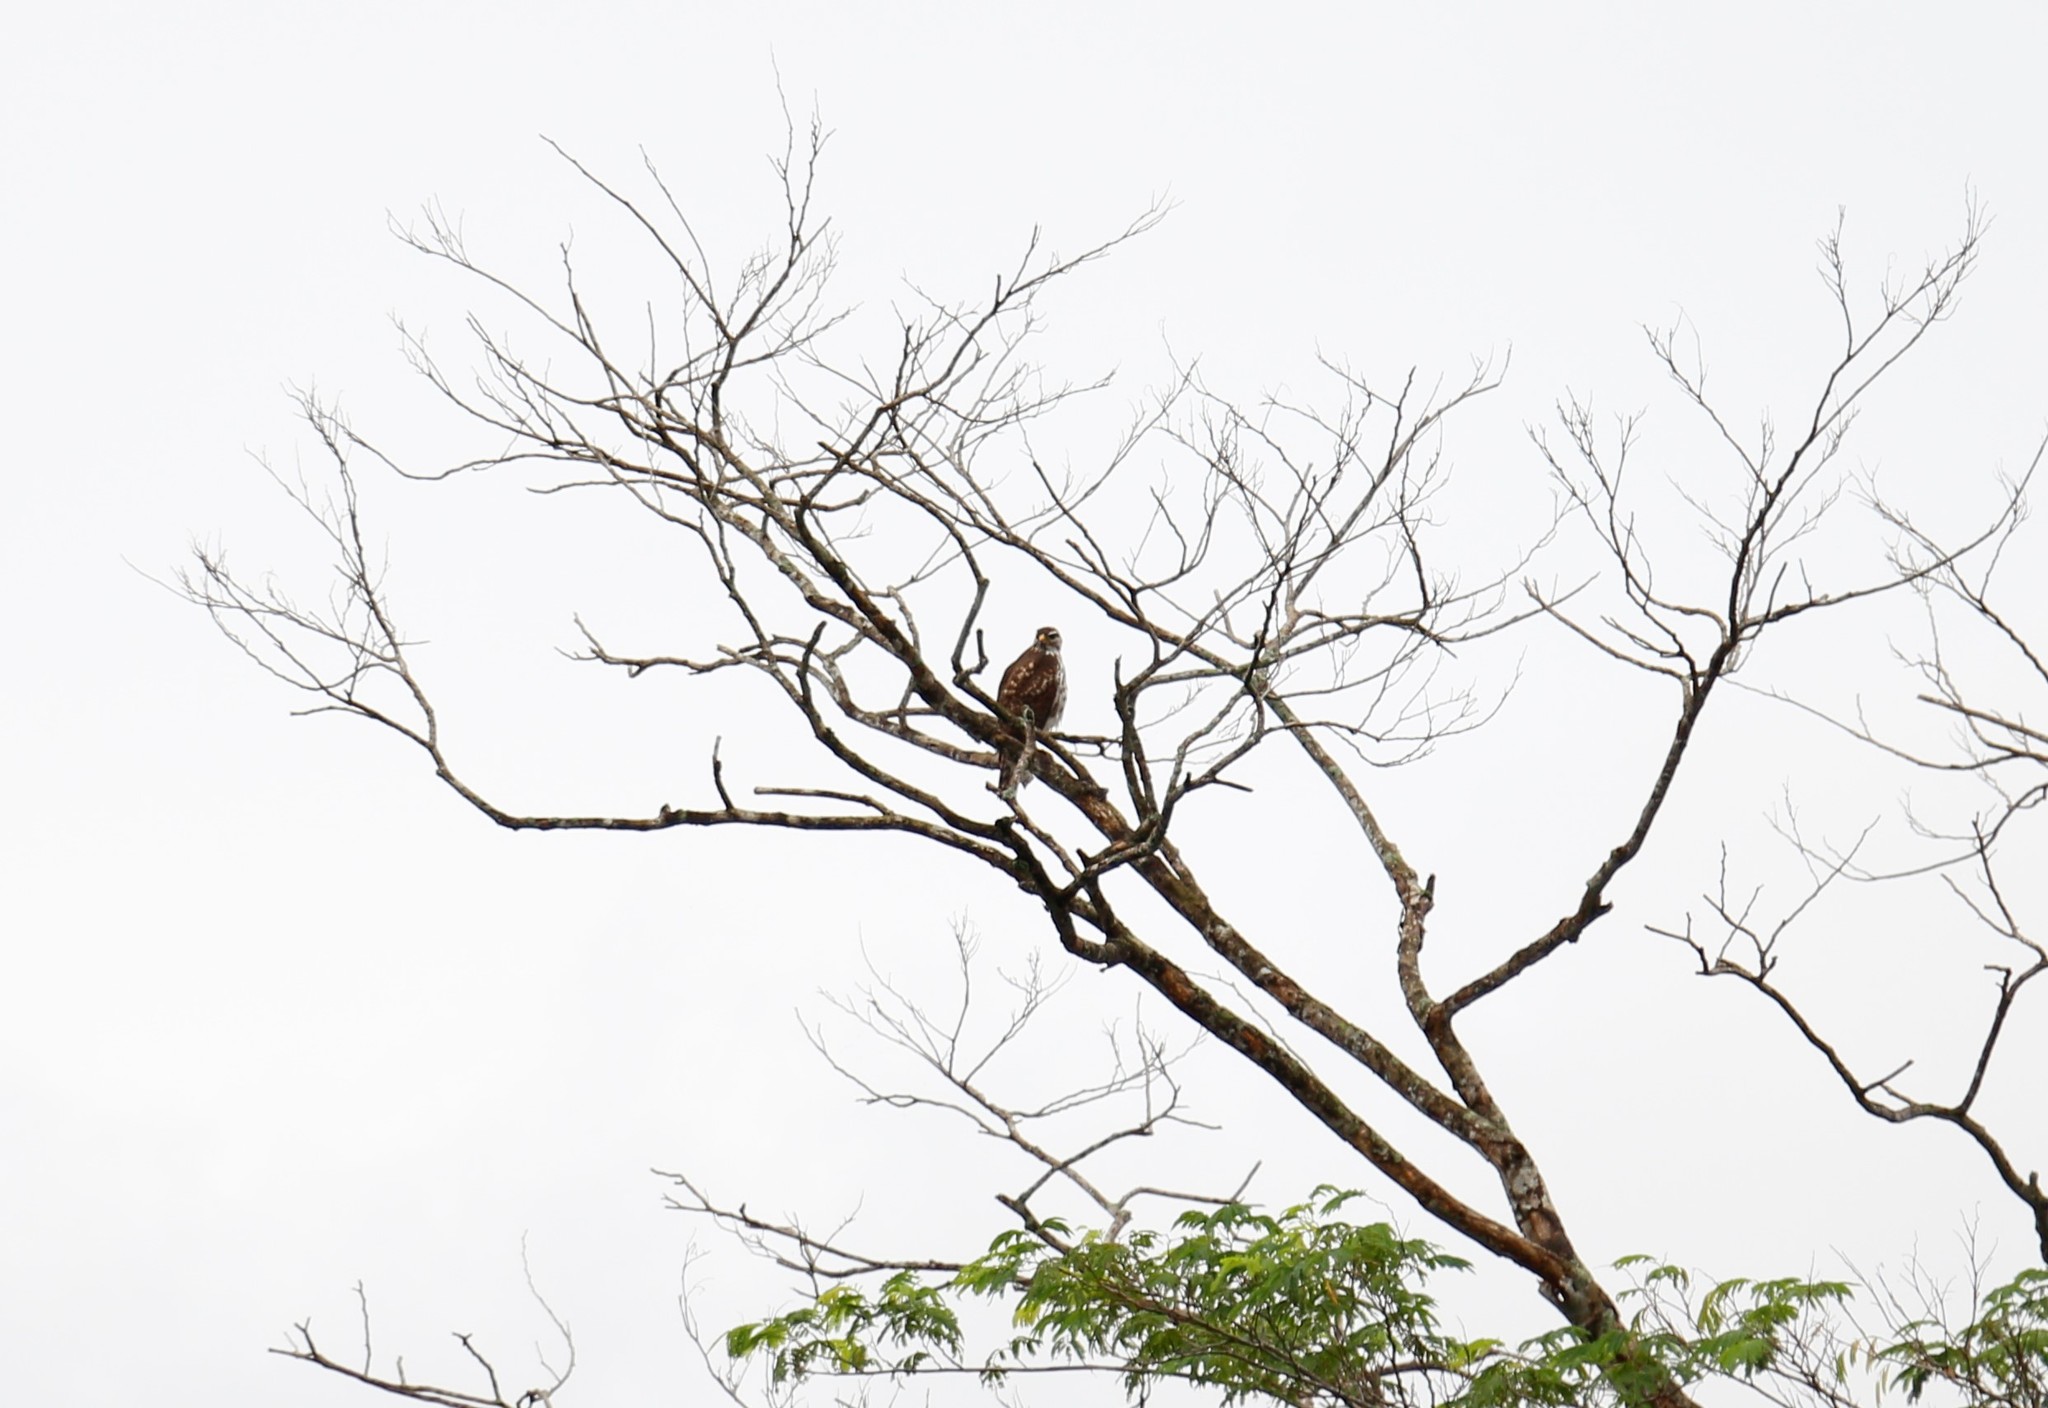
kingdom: Animalia
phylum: Chordata
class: Aves
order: Accipitriformes
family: Accipitridae
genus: Buteo
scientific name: Buteo nitidus
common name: Grey-lined hawk
